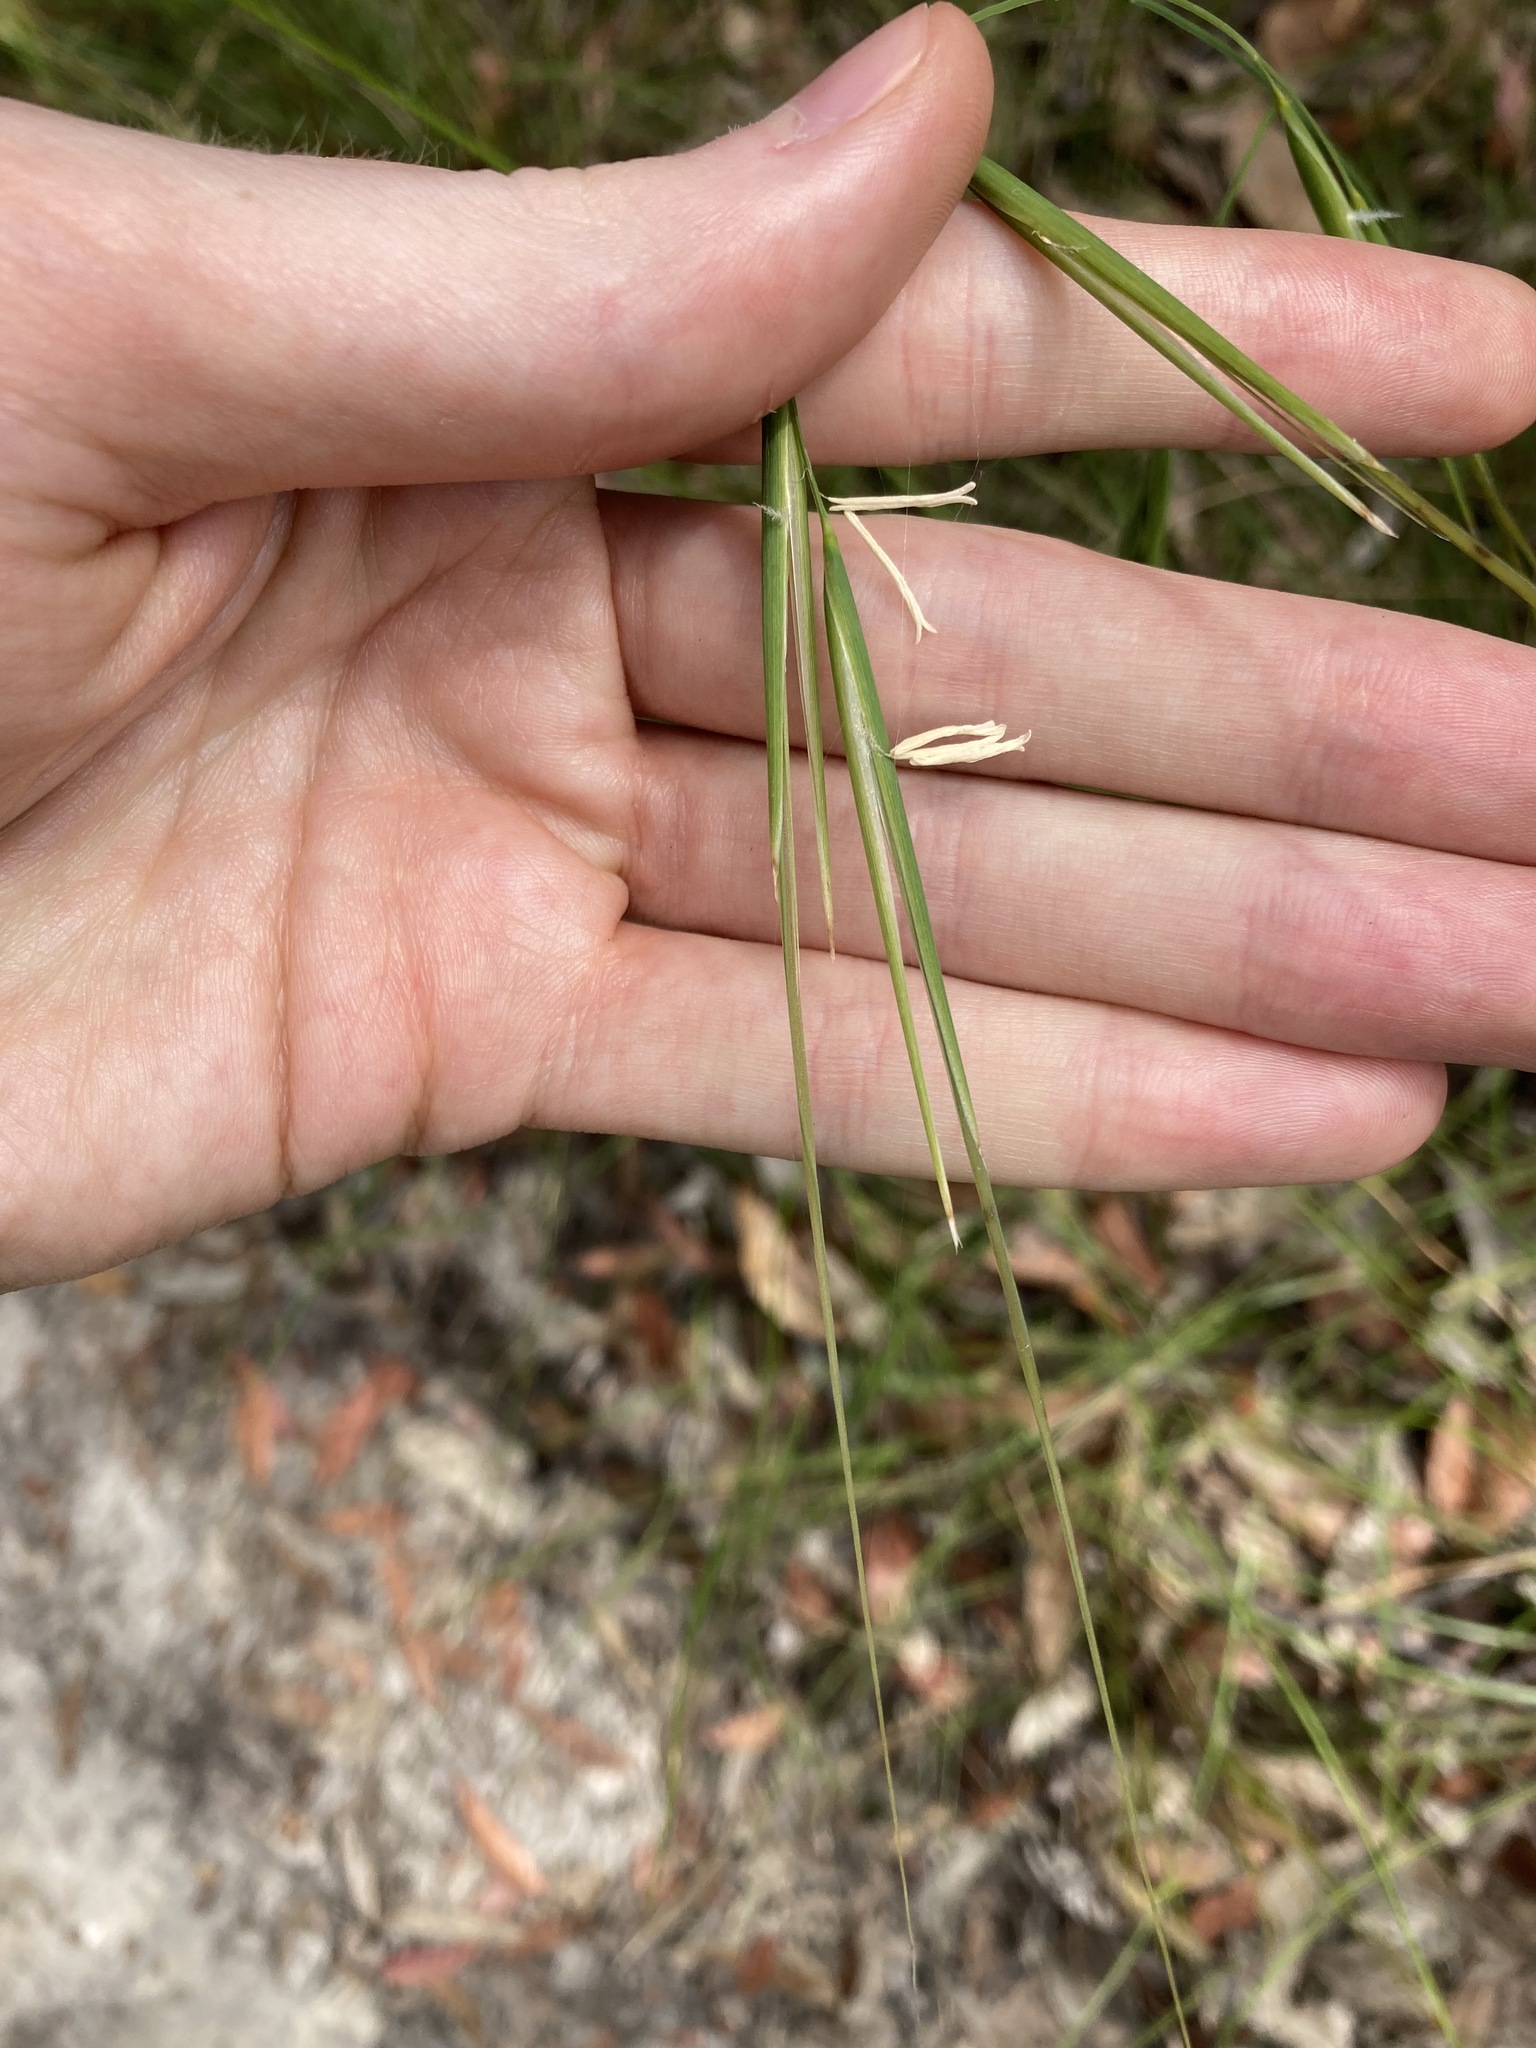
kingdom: Plantae
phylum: Tracheophyta
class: Liliopsida
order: Poales
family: Poaceae
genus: Anisopogon
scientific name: Anisopogon avenaceus
